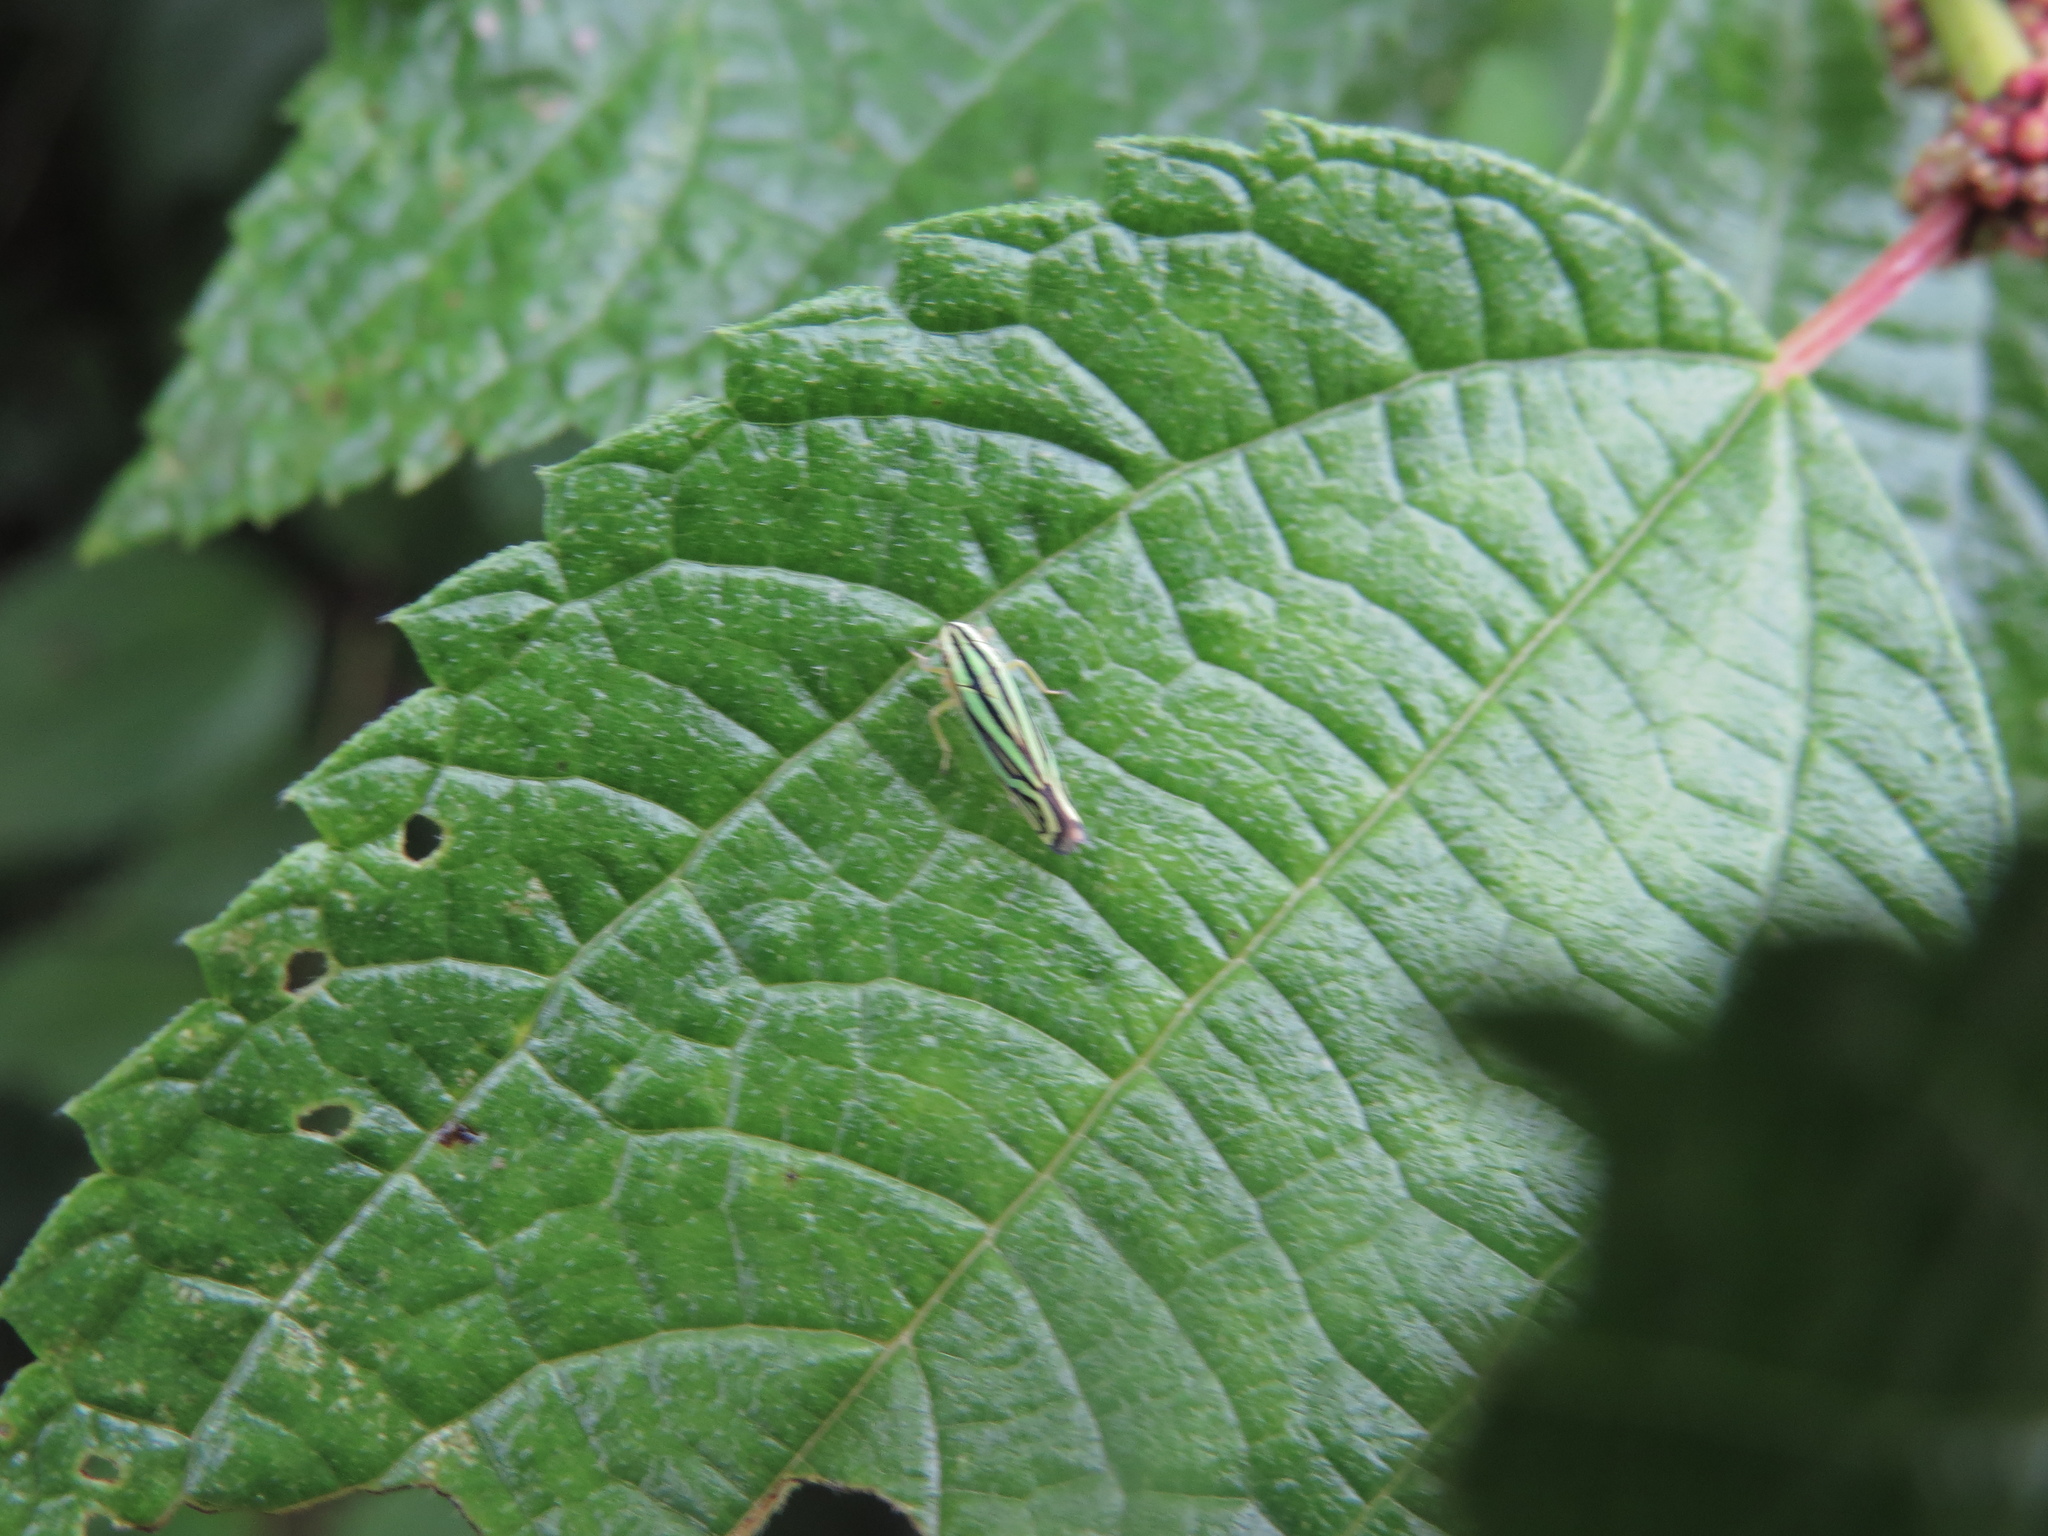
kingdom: Animalia
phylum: Arthropoda
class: Insecta
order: Hemiptera
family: Cicadellidae
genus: Sibovia
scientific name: Sibovia sagata
